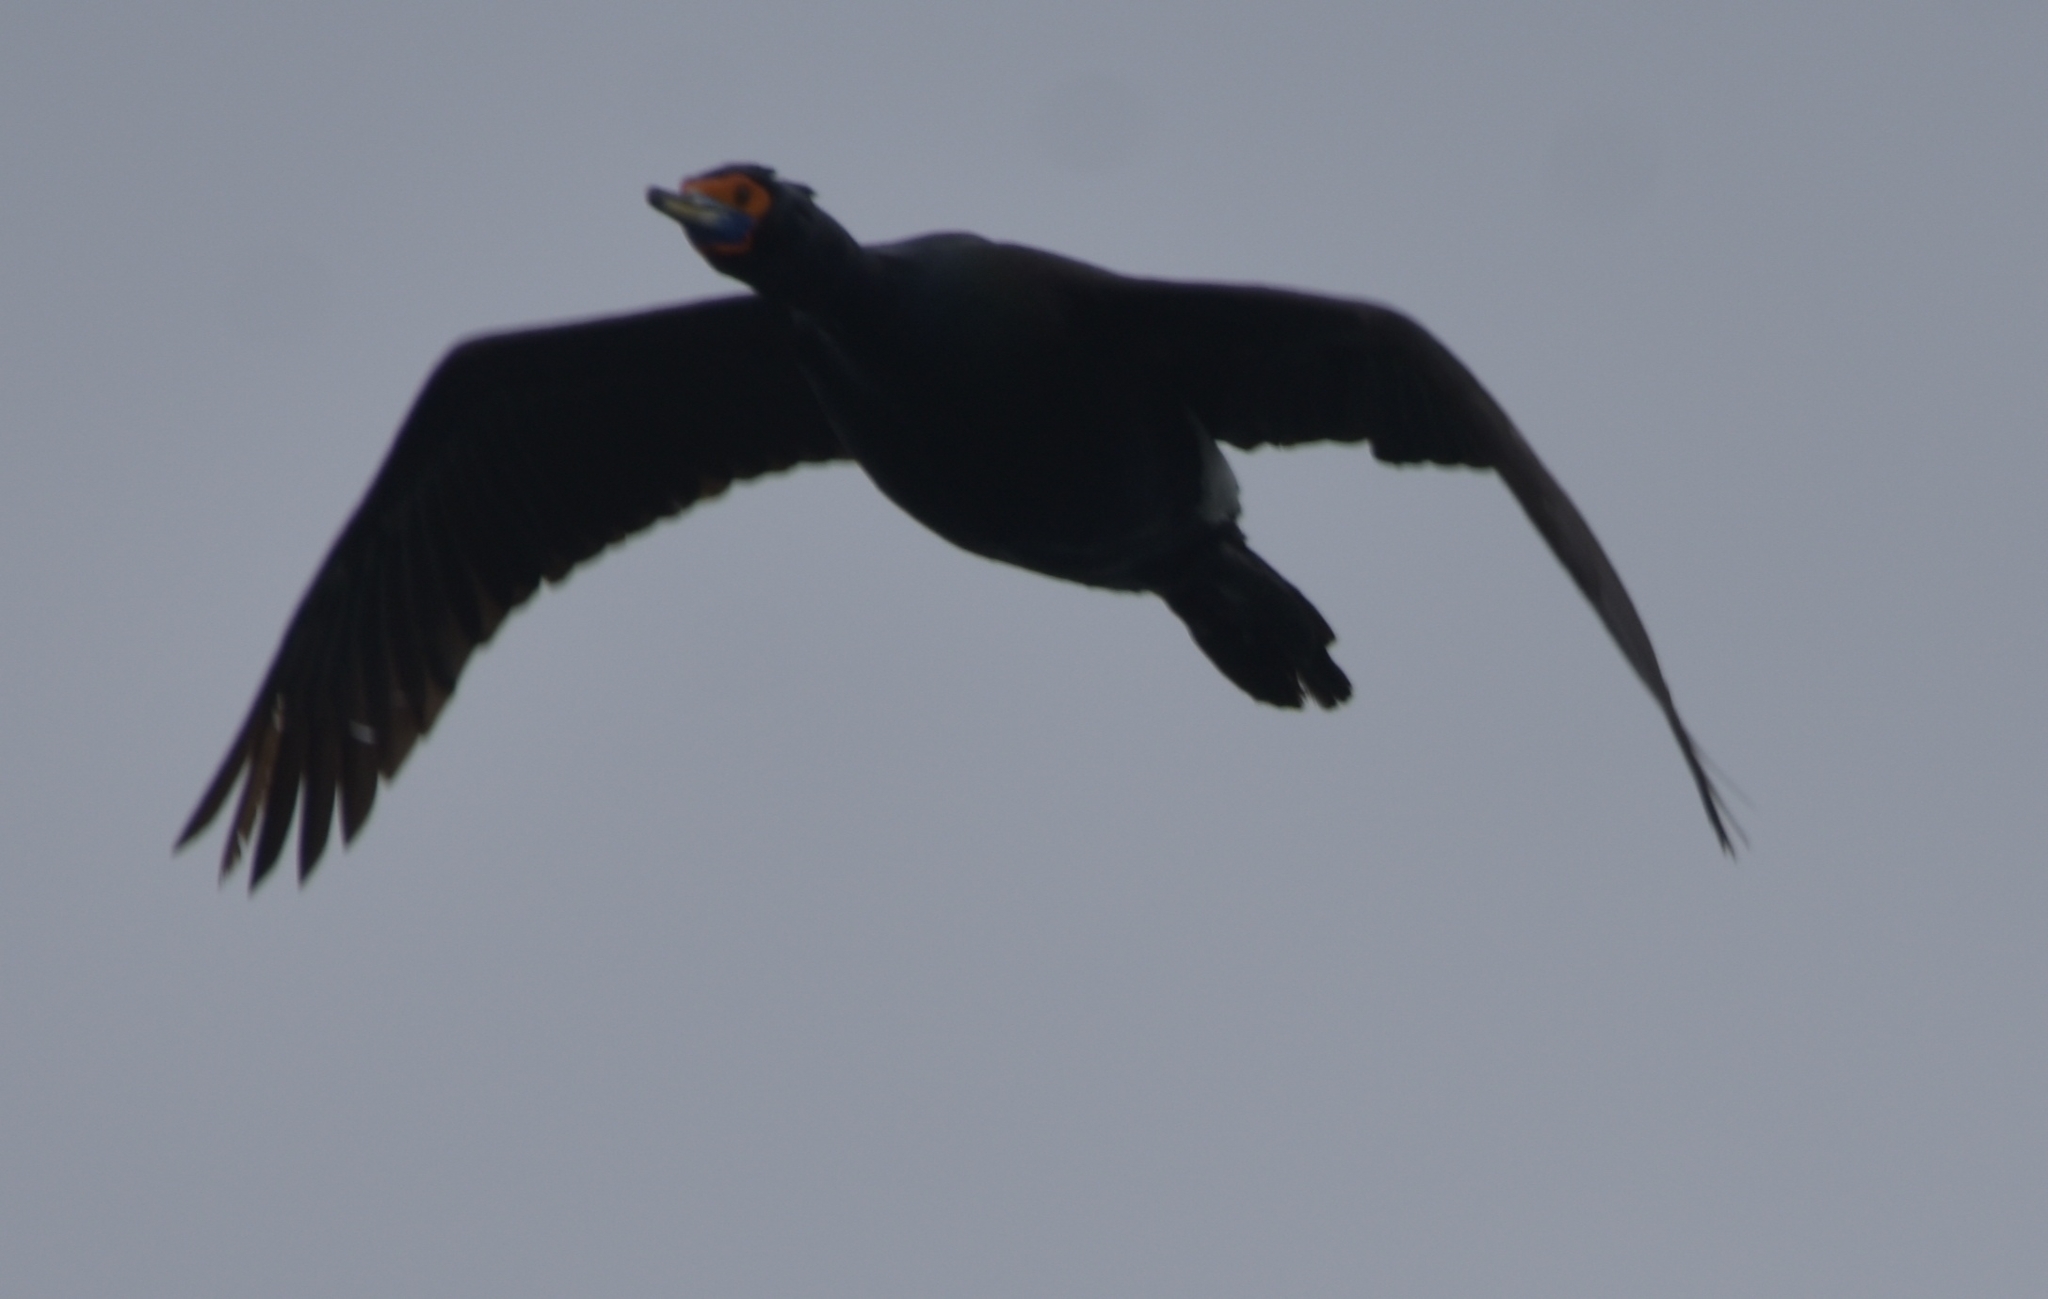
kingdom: Animalia
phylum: Chordata
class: Aves
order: Suliformes
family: Phalacrocoracidae
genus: Phalacrocorax
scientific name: Phalacrocorax urile
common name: Red-faced cormorant
